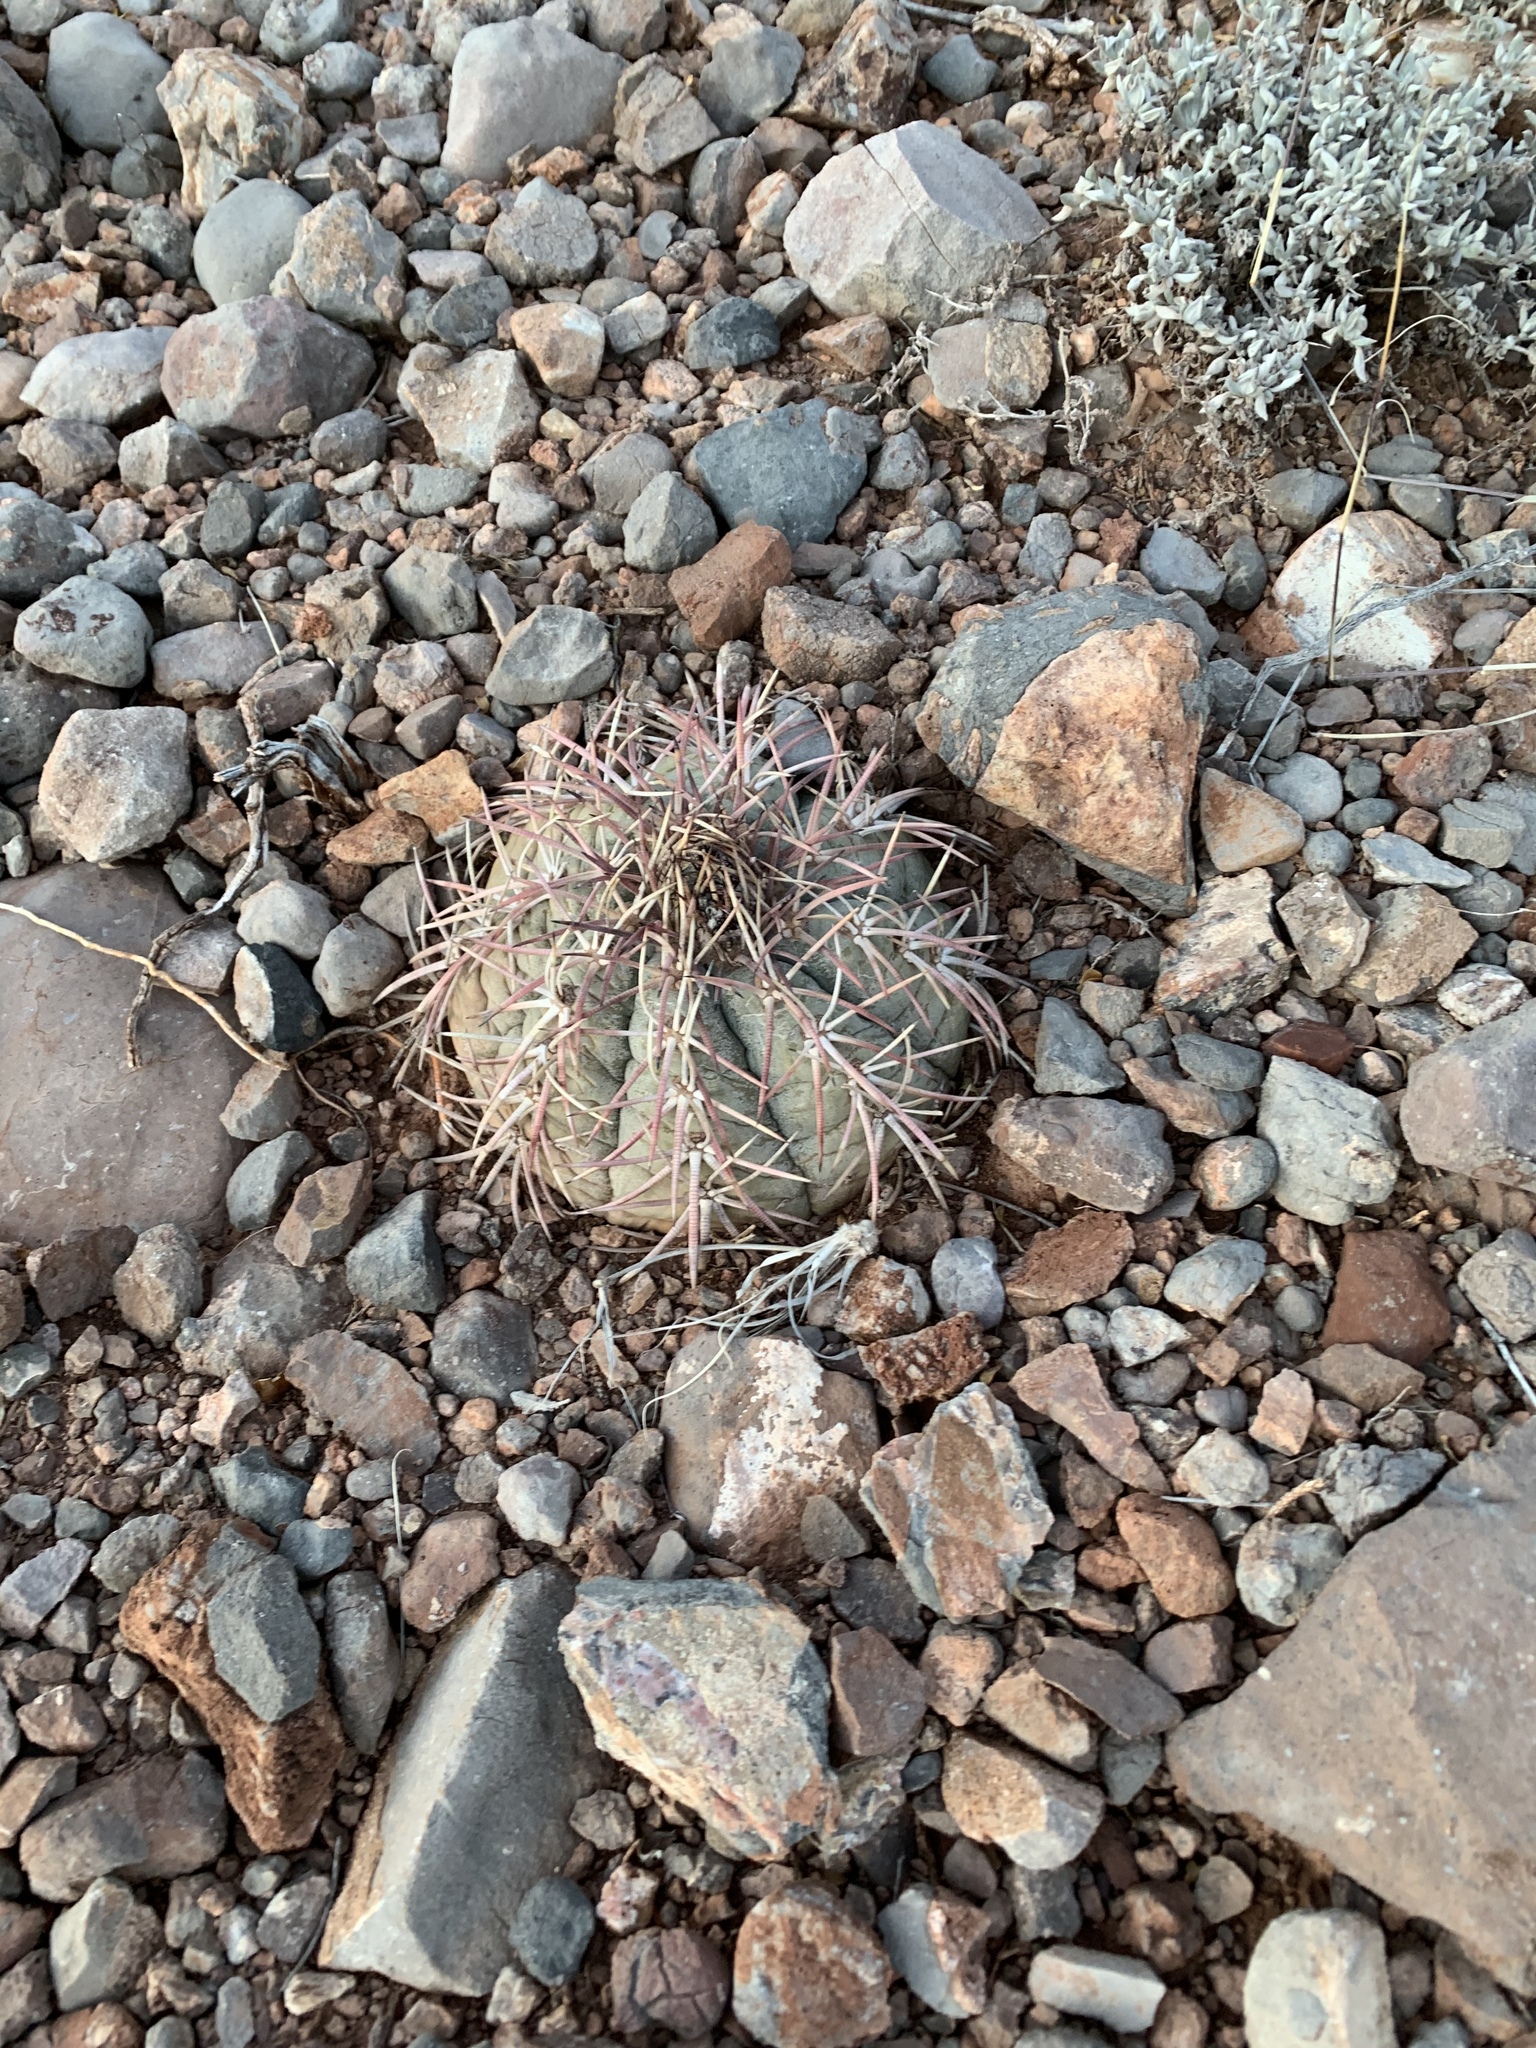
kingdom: Plantae
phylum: Tracheophyta
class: Magnoliopsida
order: Caryophyllales
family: Cactaceae
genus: Echinocactus
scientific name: Echinocactus horizonthalonius
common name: Devilshead
